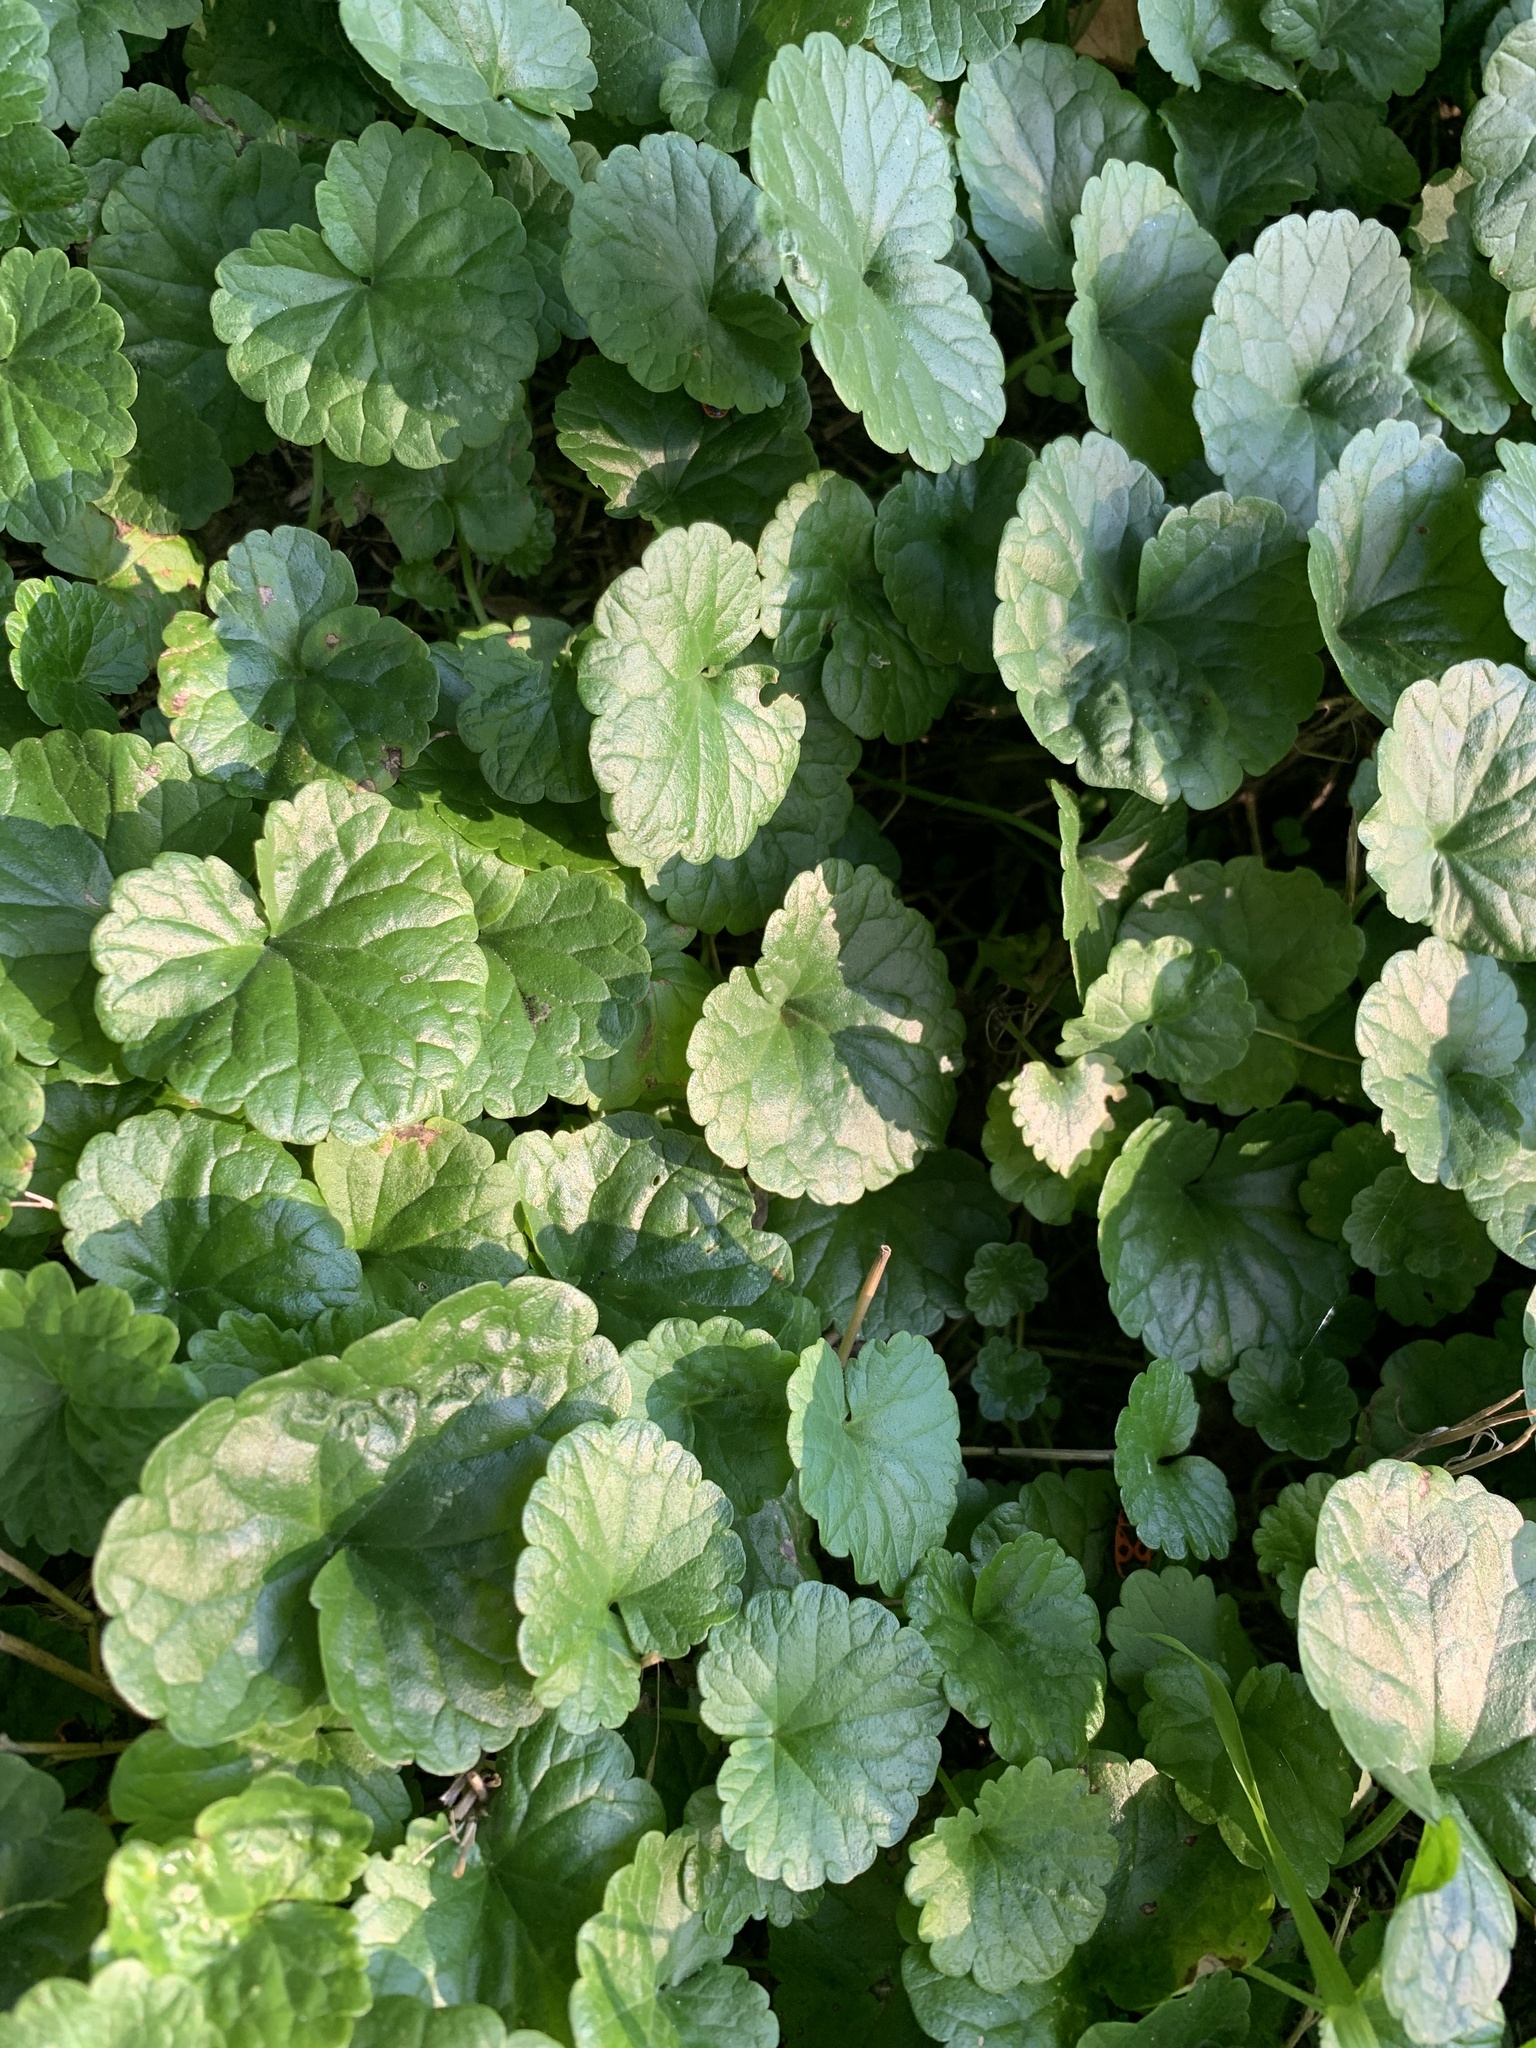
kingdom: Plantae
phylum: Tracheophyta
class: Magnoliopsida
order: Lamiales
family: Lamiaceae
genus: Glechoma
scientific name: Glechoma hederacea
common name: Ground ivy
